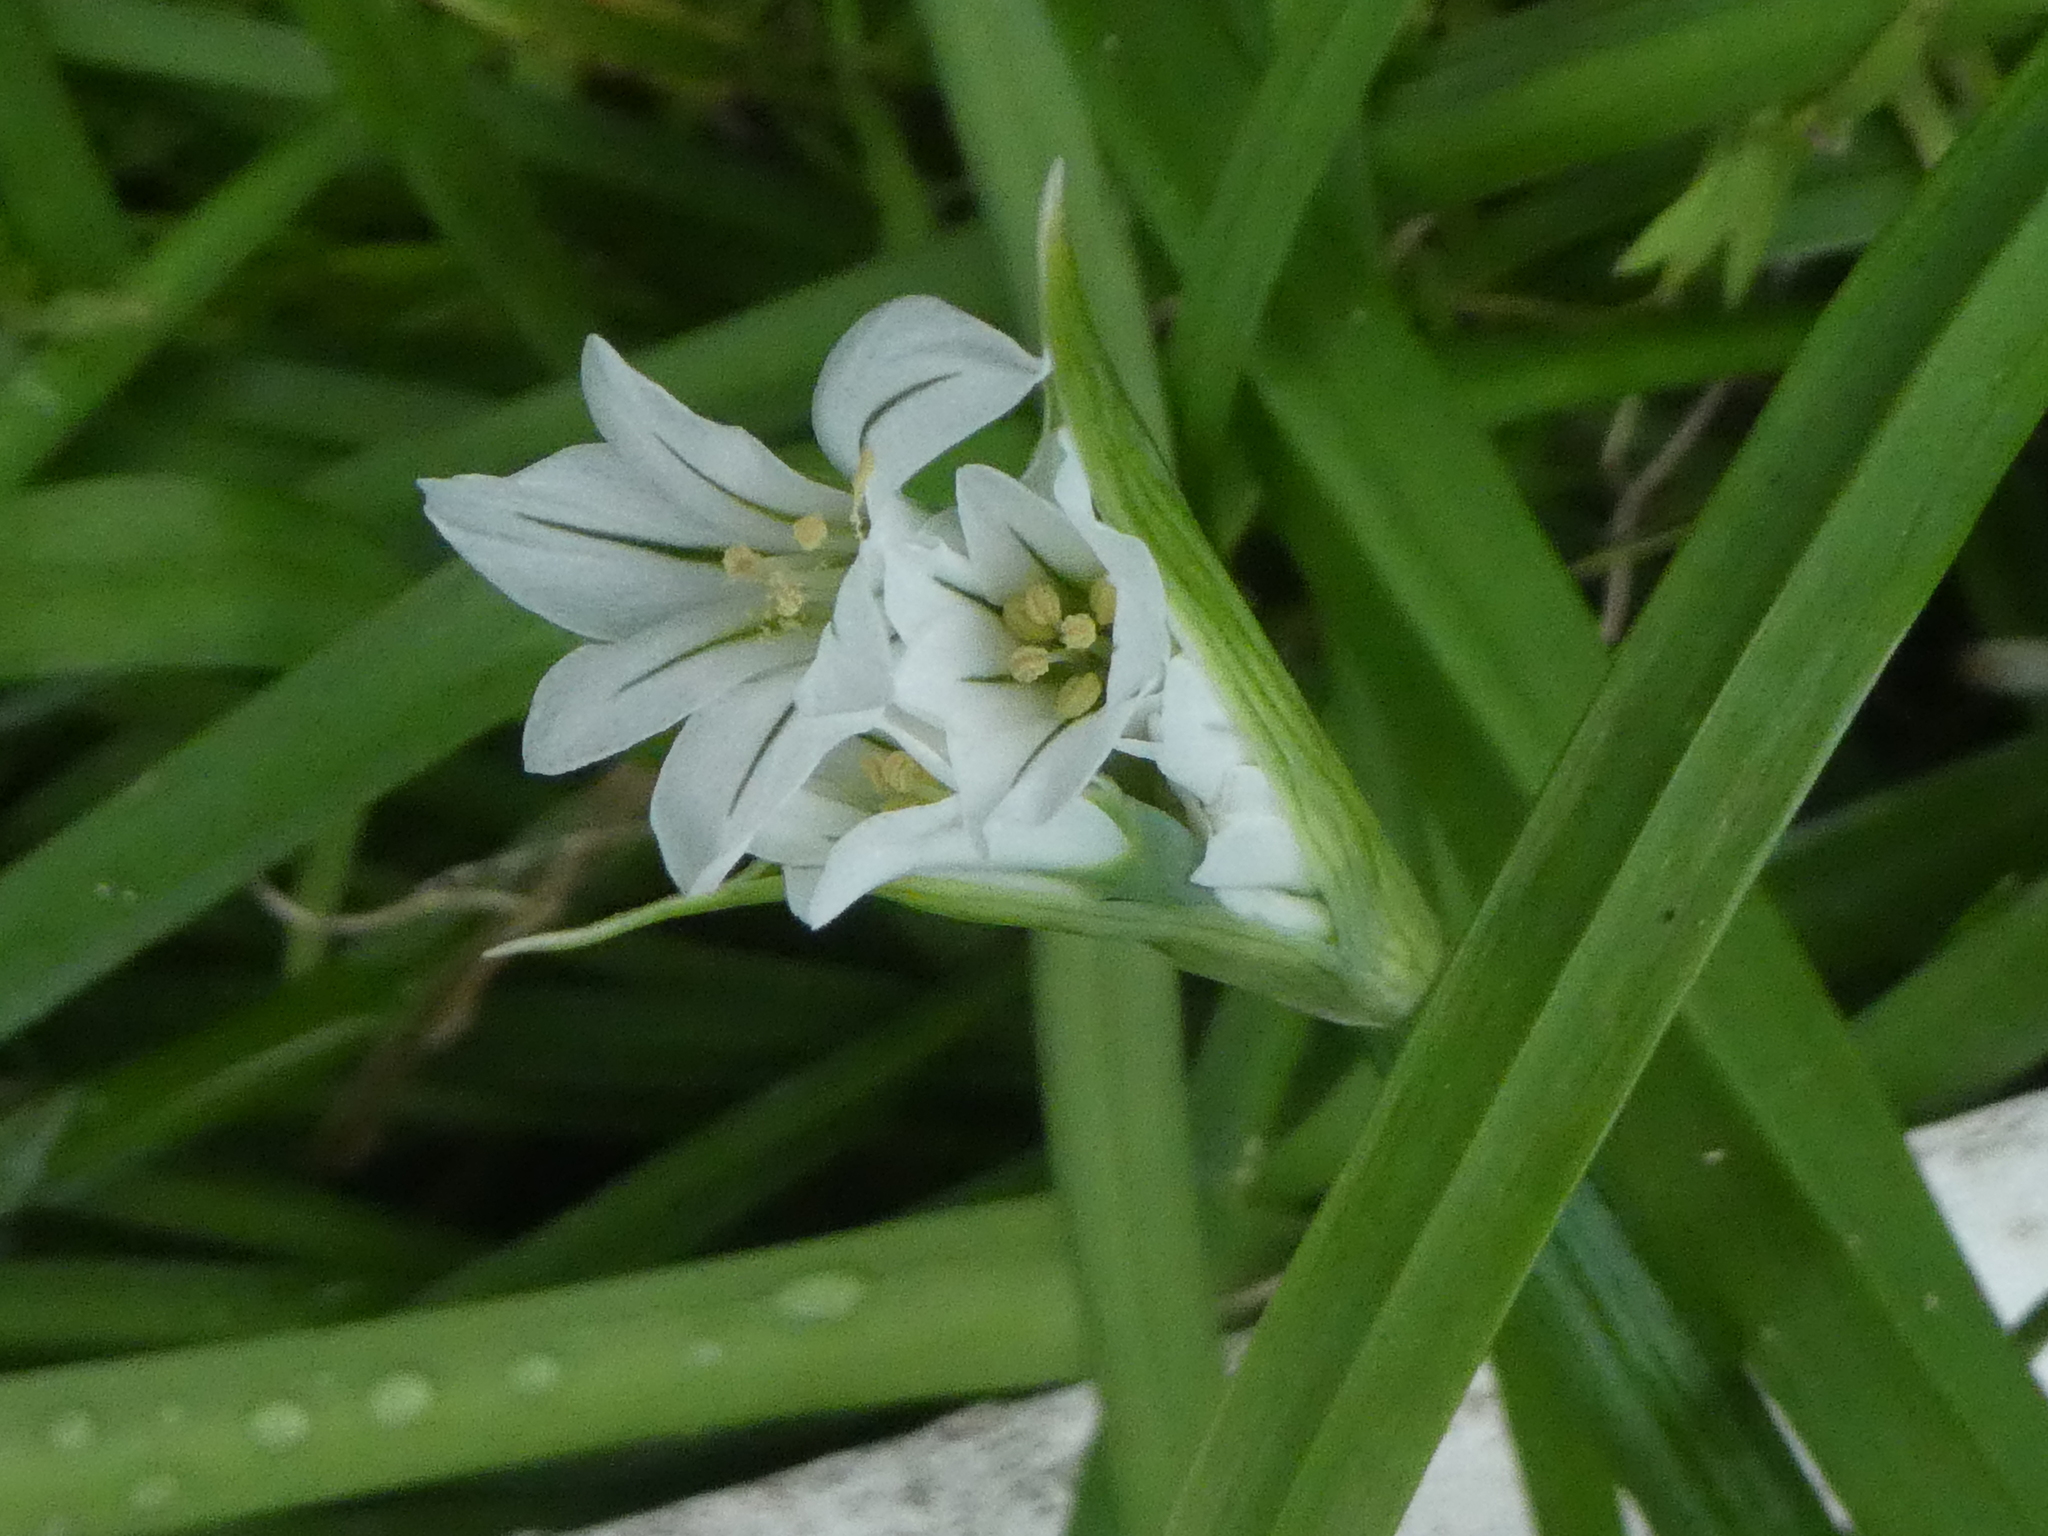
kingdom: Plantae
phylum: Tracheophyta
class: Liliopsida
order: Asparagales
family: Amaryllidaceae
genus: Allium
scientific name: Allium triquetrum
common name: Three-cornered garlic
